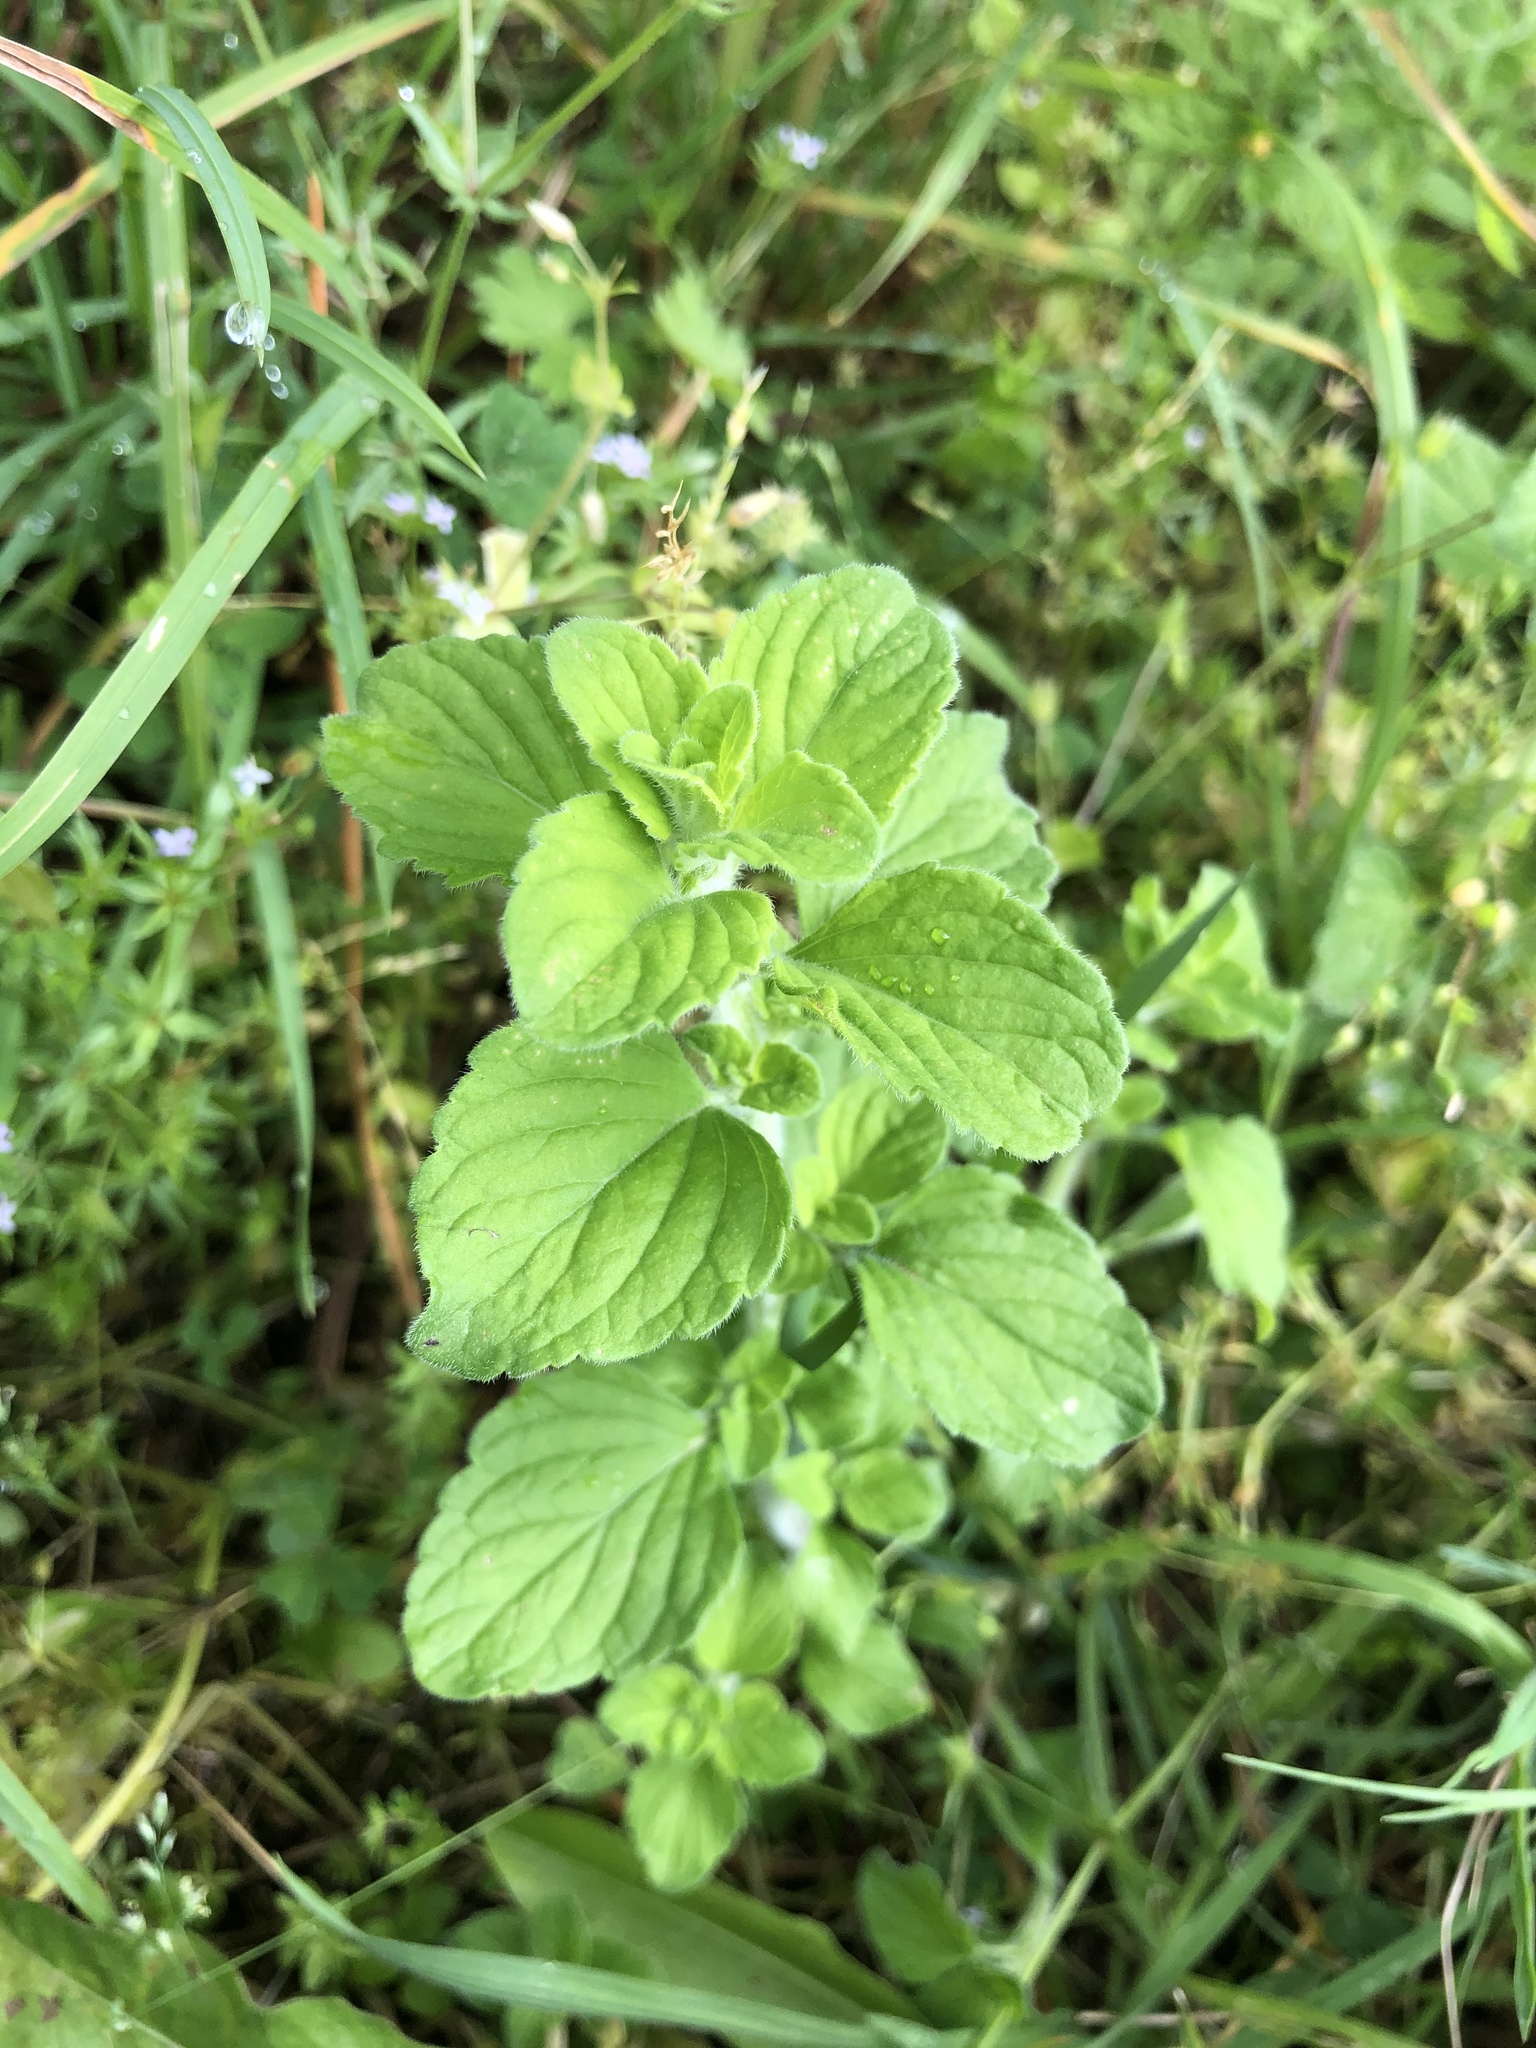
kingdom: Plantae
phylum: Tracheophyta
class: Magnoliopsida
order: Lamiales
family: Lamiaceae
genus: Clinopodium
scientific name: Clinopodium nepeta
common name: Lesser calamint
